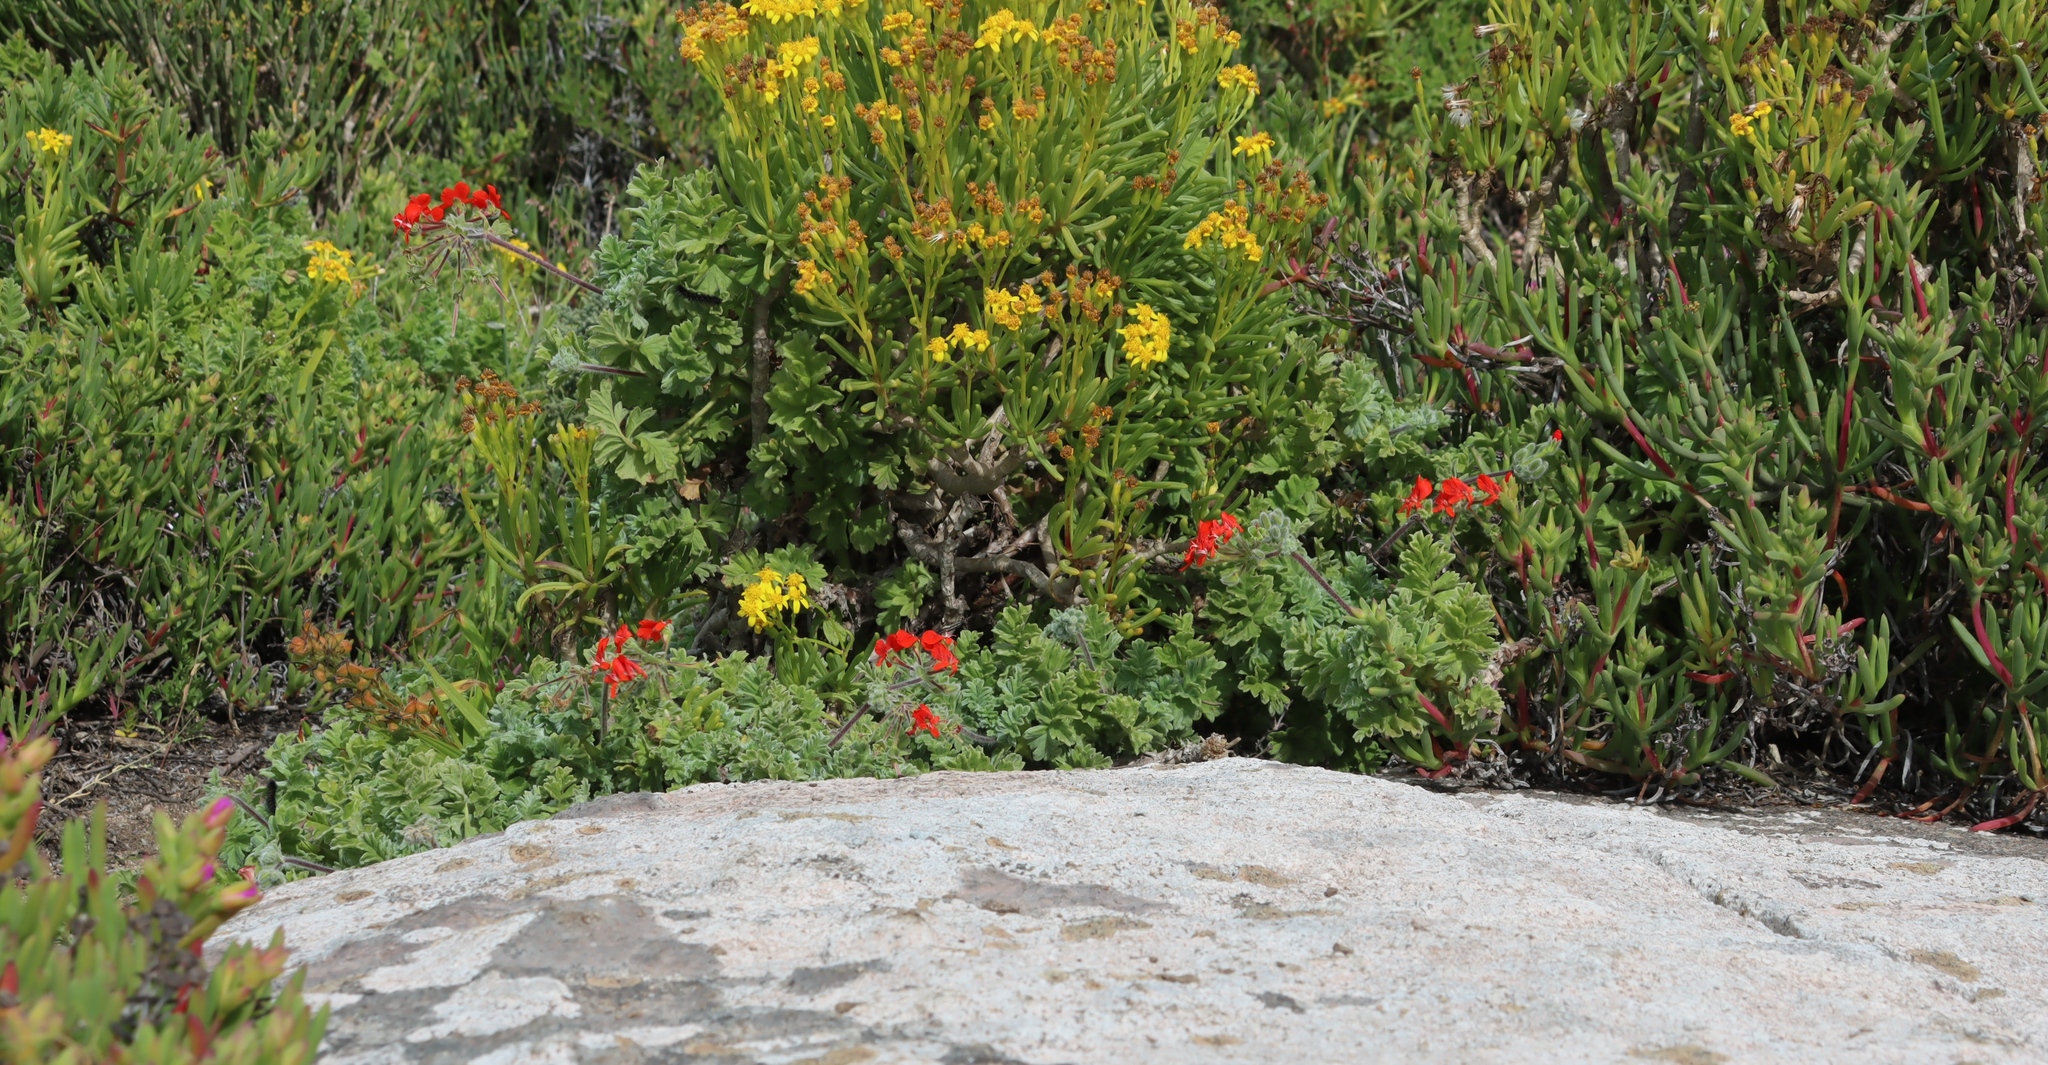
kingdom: Plantae
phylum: Tracheophyta
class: Magnoliopsida
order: Geraniales
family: Geraniaceae
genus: Pelargonium
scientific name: Pelargonium fulgidum
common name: Celandine-leaf pelargonium
